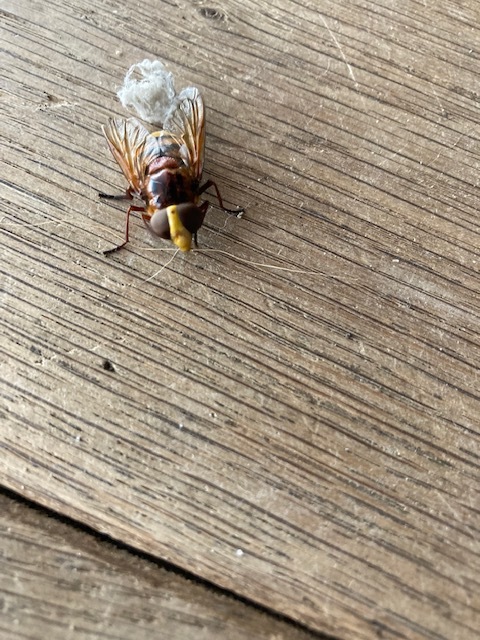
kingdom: Animalia
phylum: Arthropoda
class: Insecta
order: Diptera
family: Syrphidae
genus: Volucella
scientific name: Volucella zonaria
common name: Hornet hoverfly
